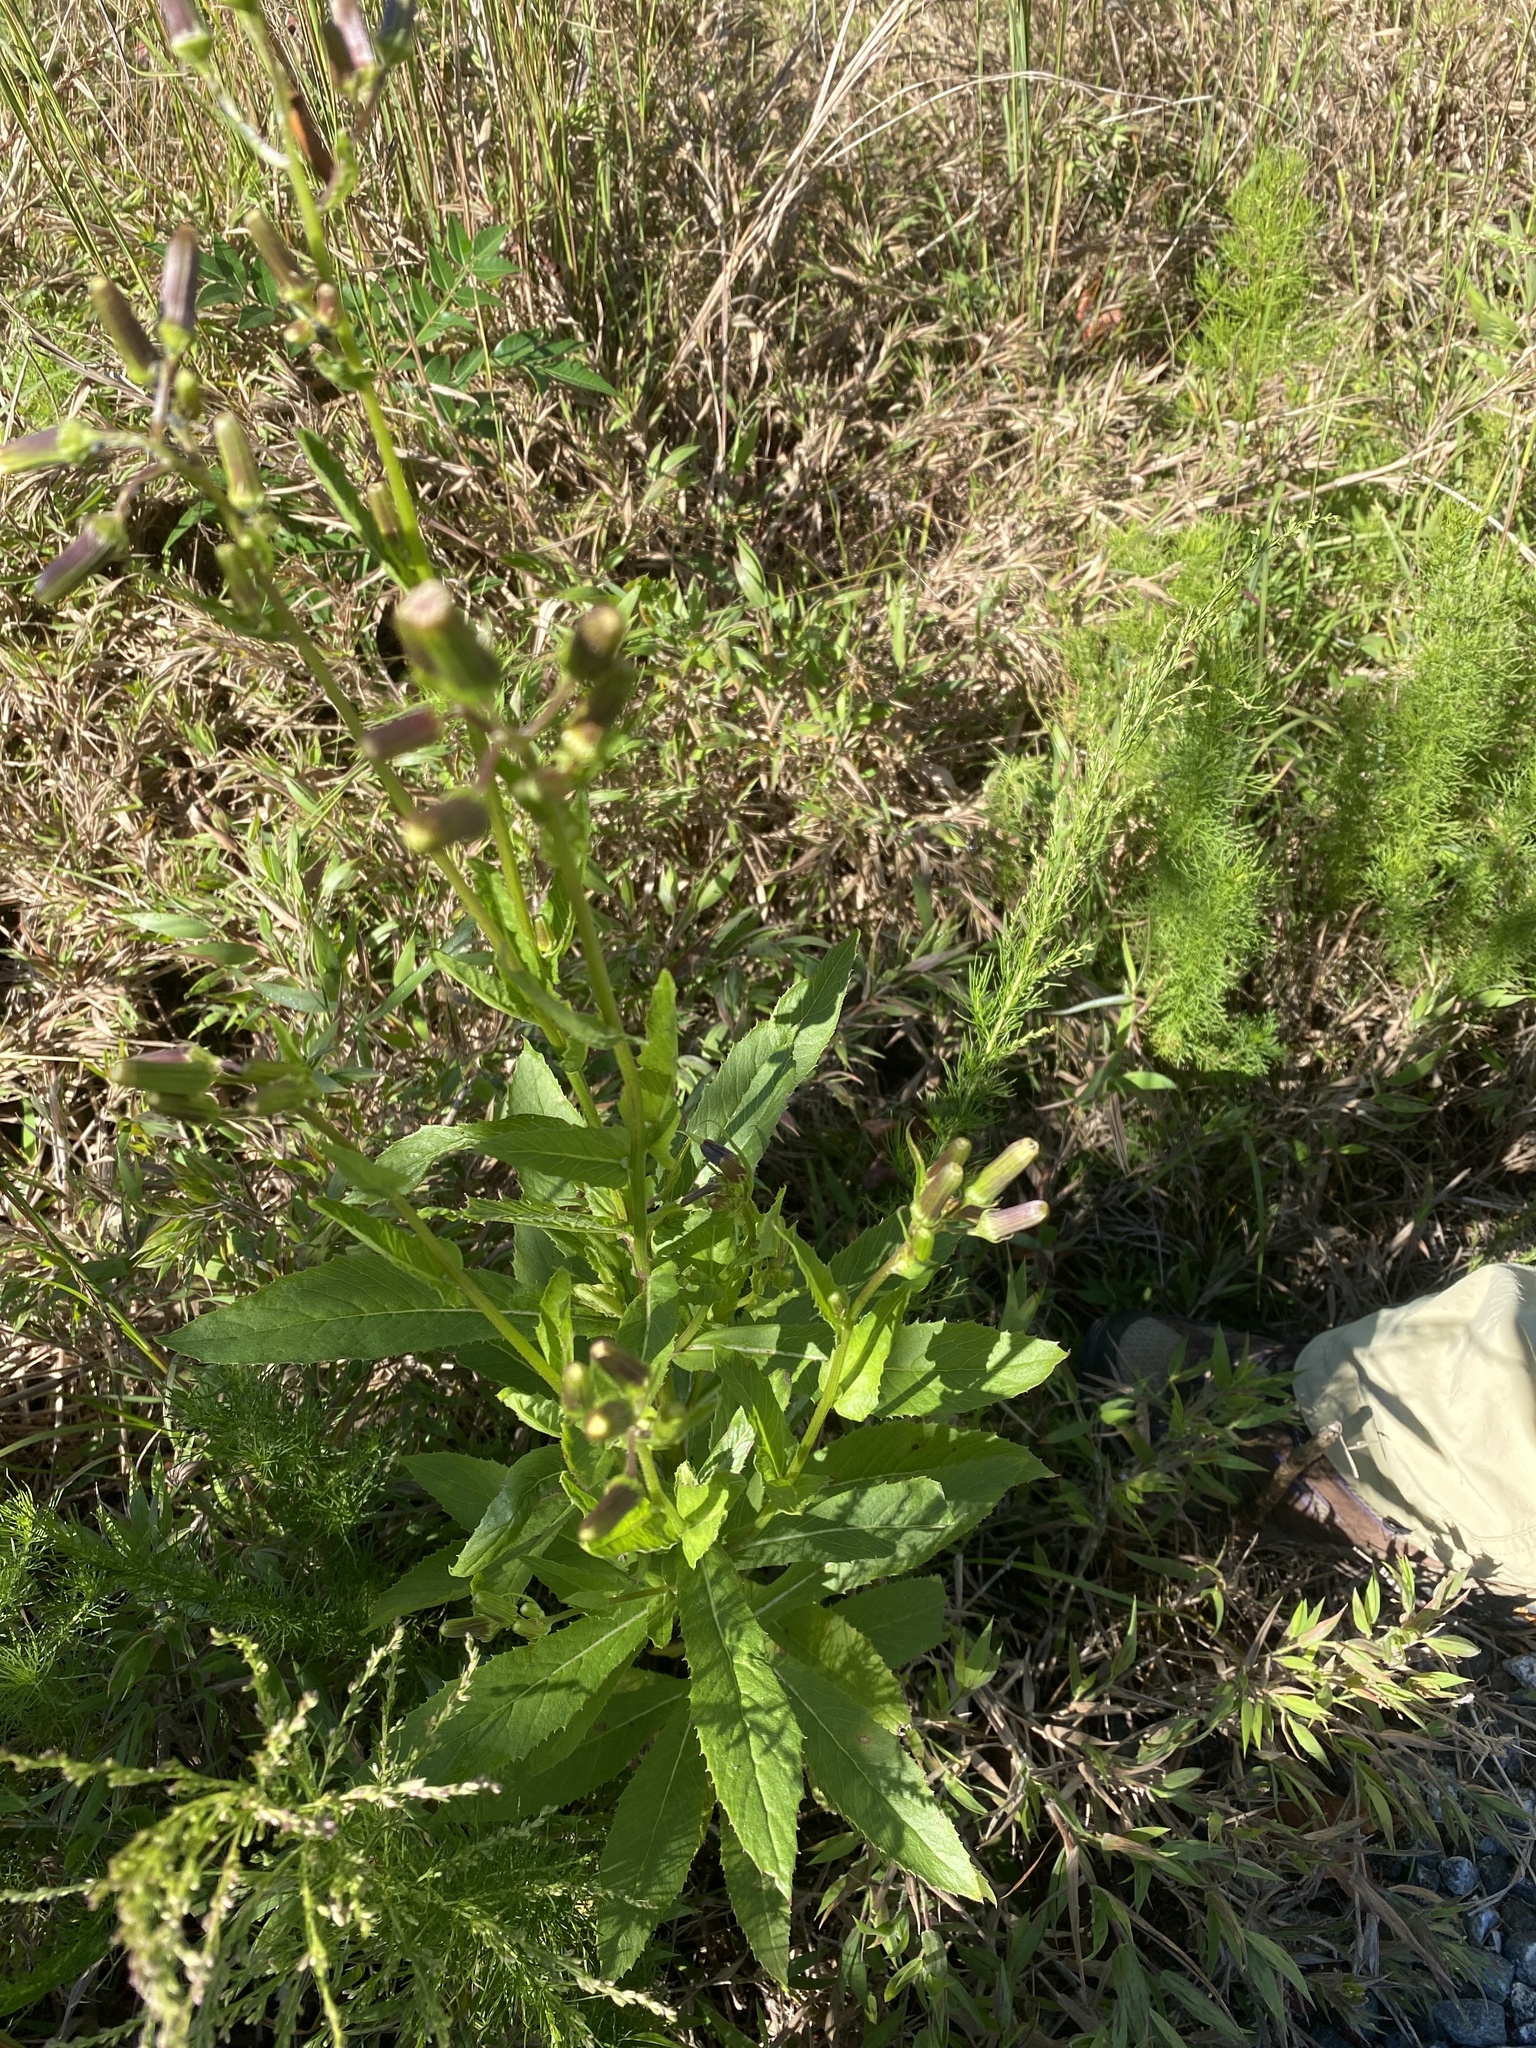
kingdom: Plantae
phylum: Tracheophyta
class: Magnoliopsida
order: Asterales
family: Asteraceae
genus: Erechtites
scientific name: Erechtites hieraciifolius
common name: American burnweed
